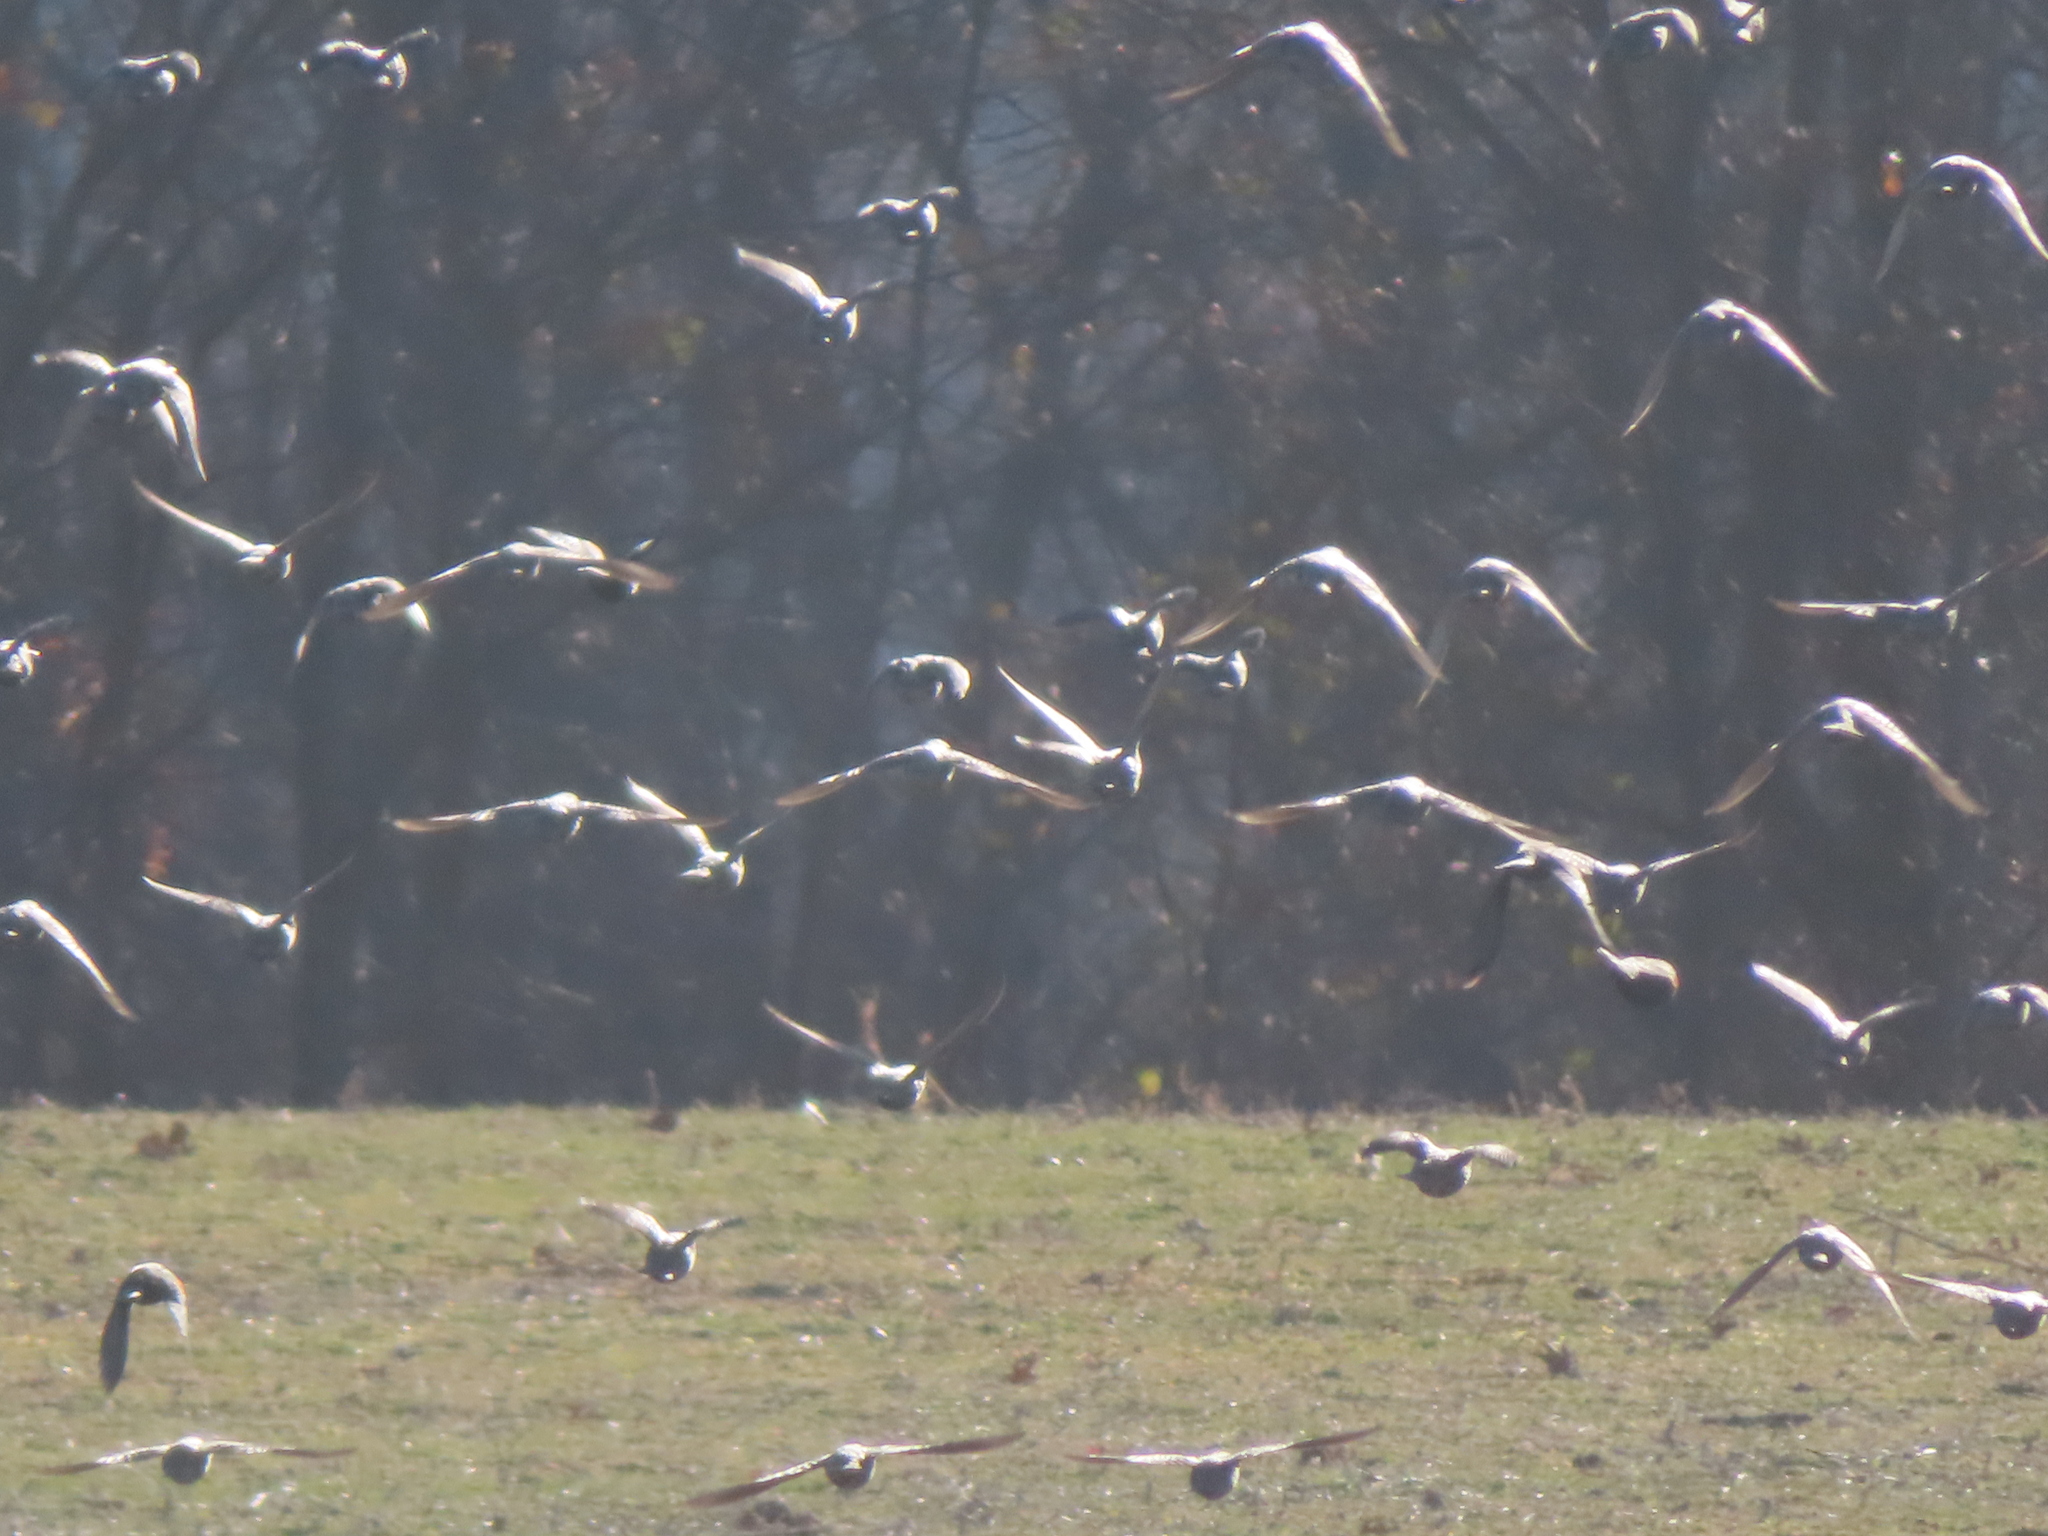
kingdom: Animalia
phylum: Chordata
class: Aves
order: Passeriformes
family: Sturnidae
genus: Sturnus
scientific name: Sturnus vulgaris
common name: Common starling
